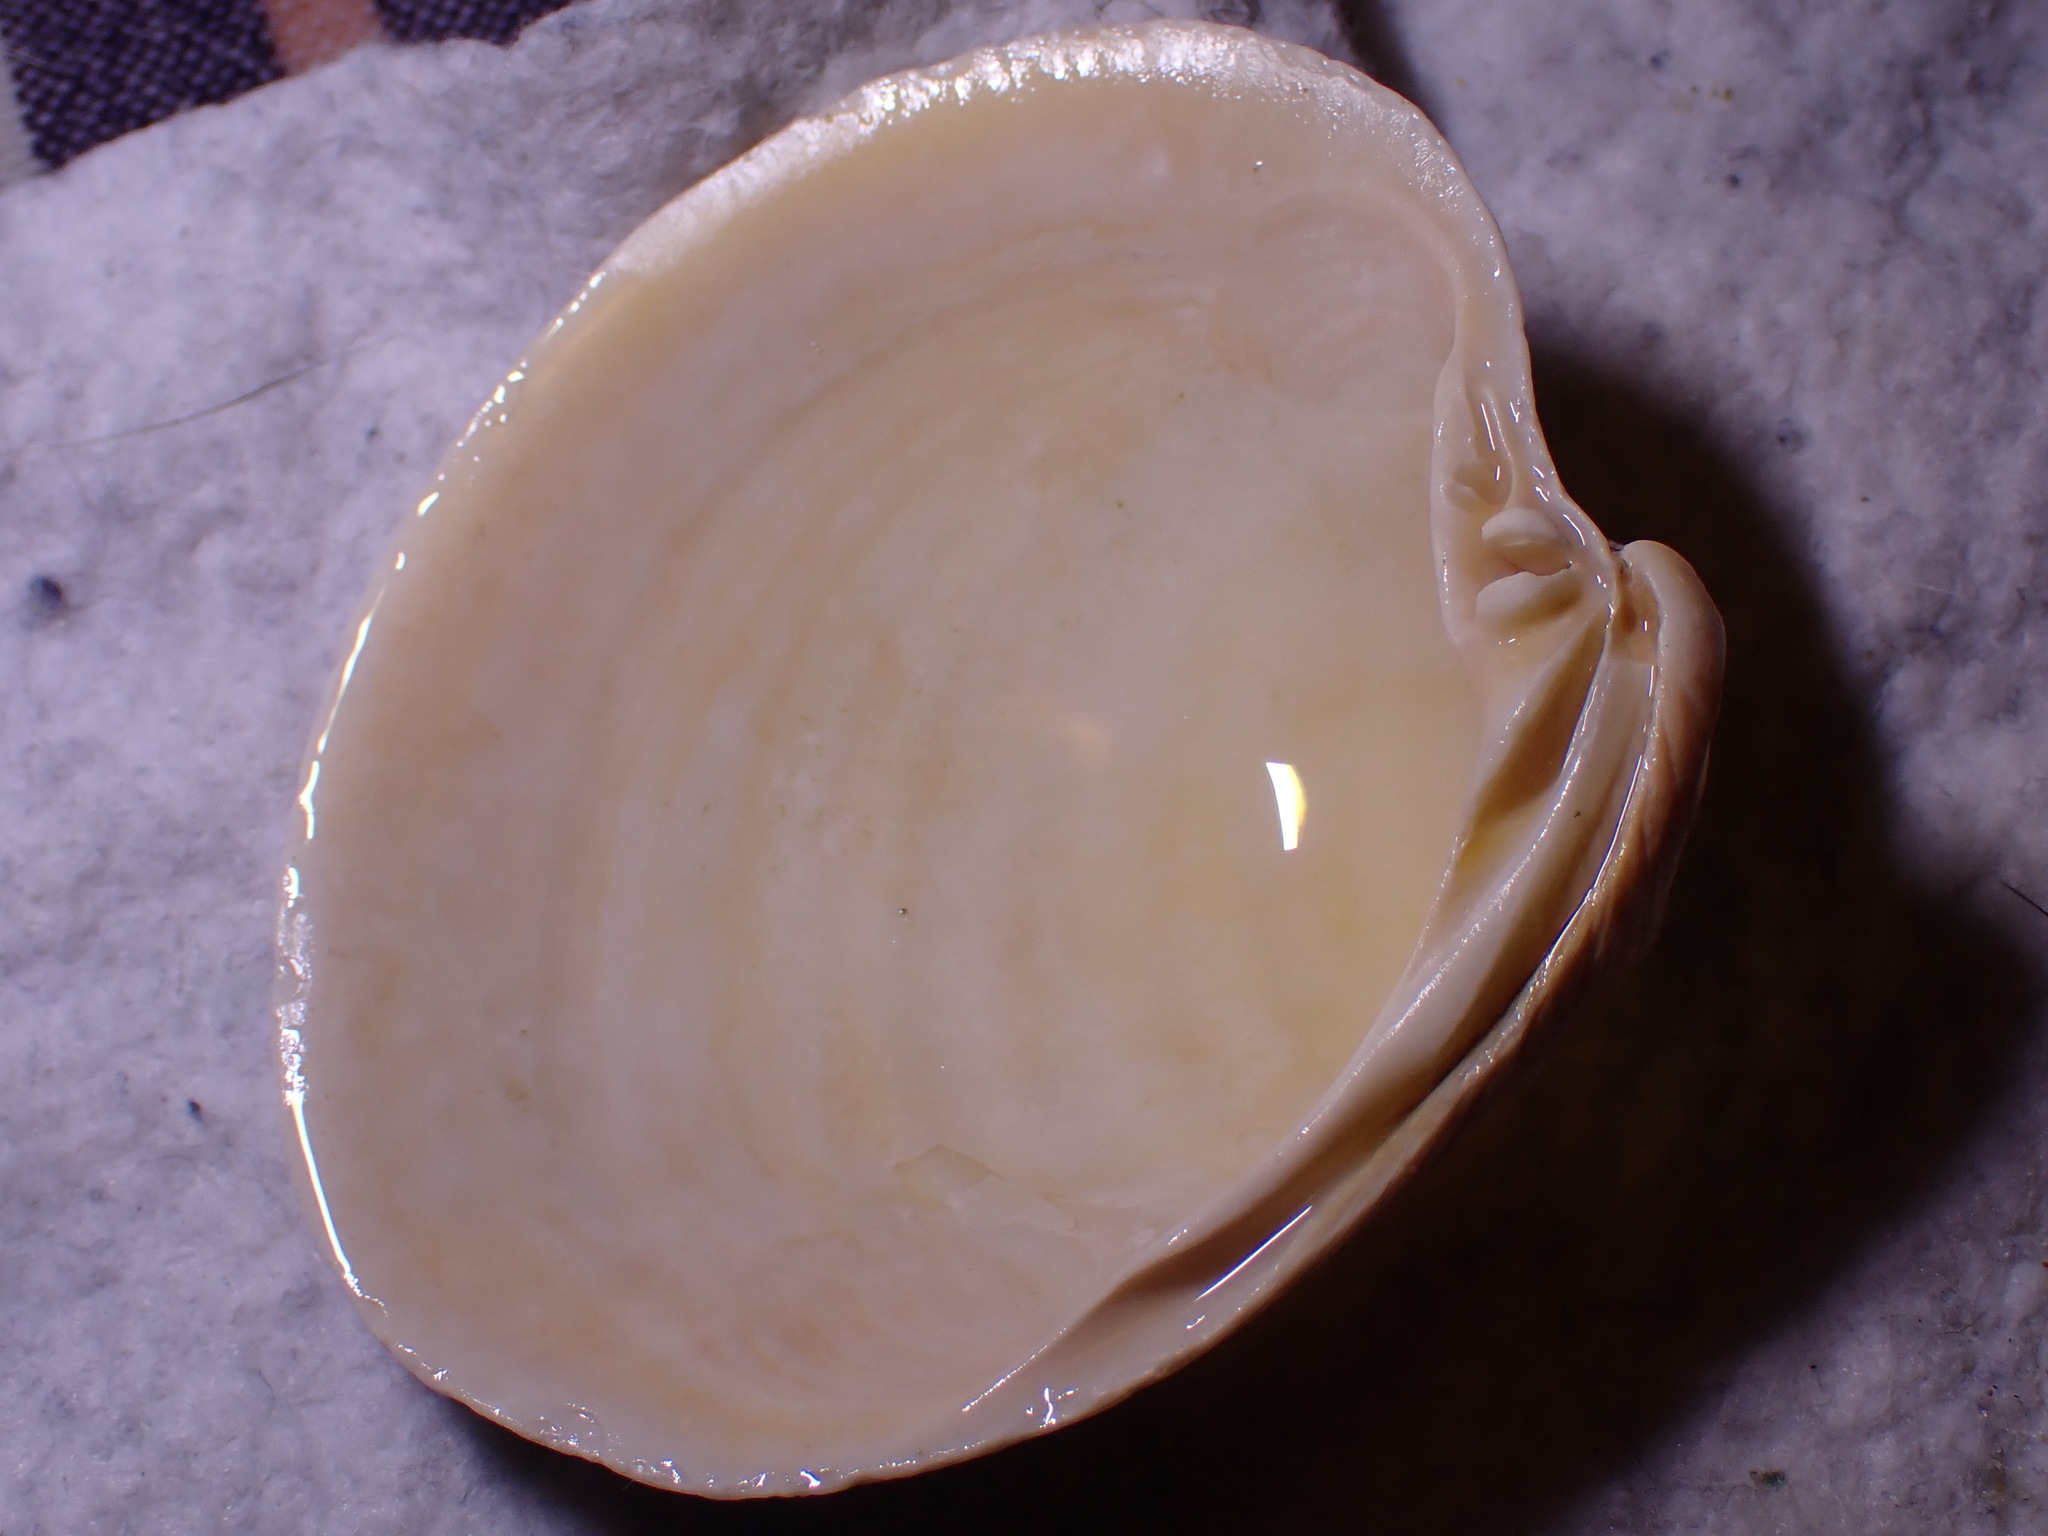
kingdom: Animalia
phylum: Mollusca
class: Bivalvia
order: Venerida
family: Arcticidae
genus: Arctica
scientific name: Arctica islandica
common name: Icelandic cyprine
